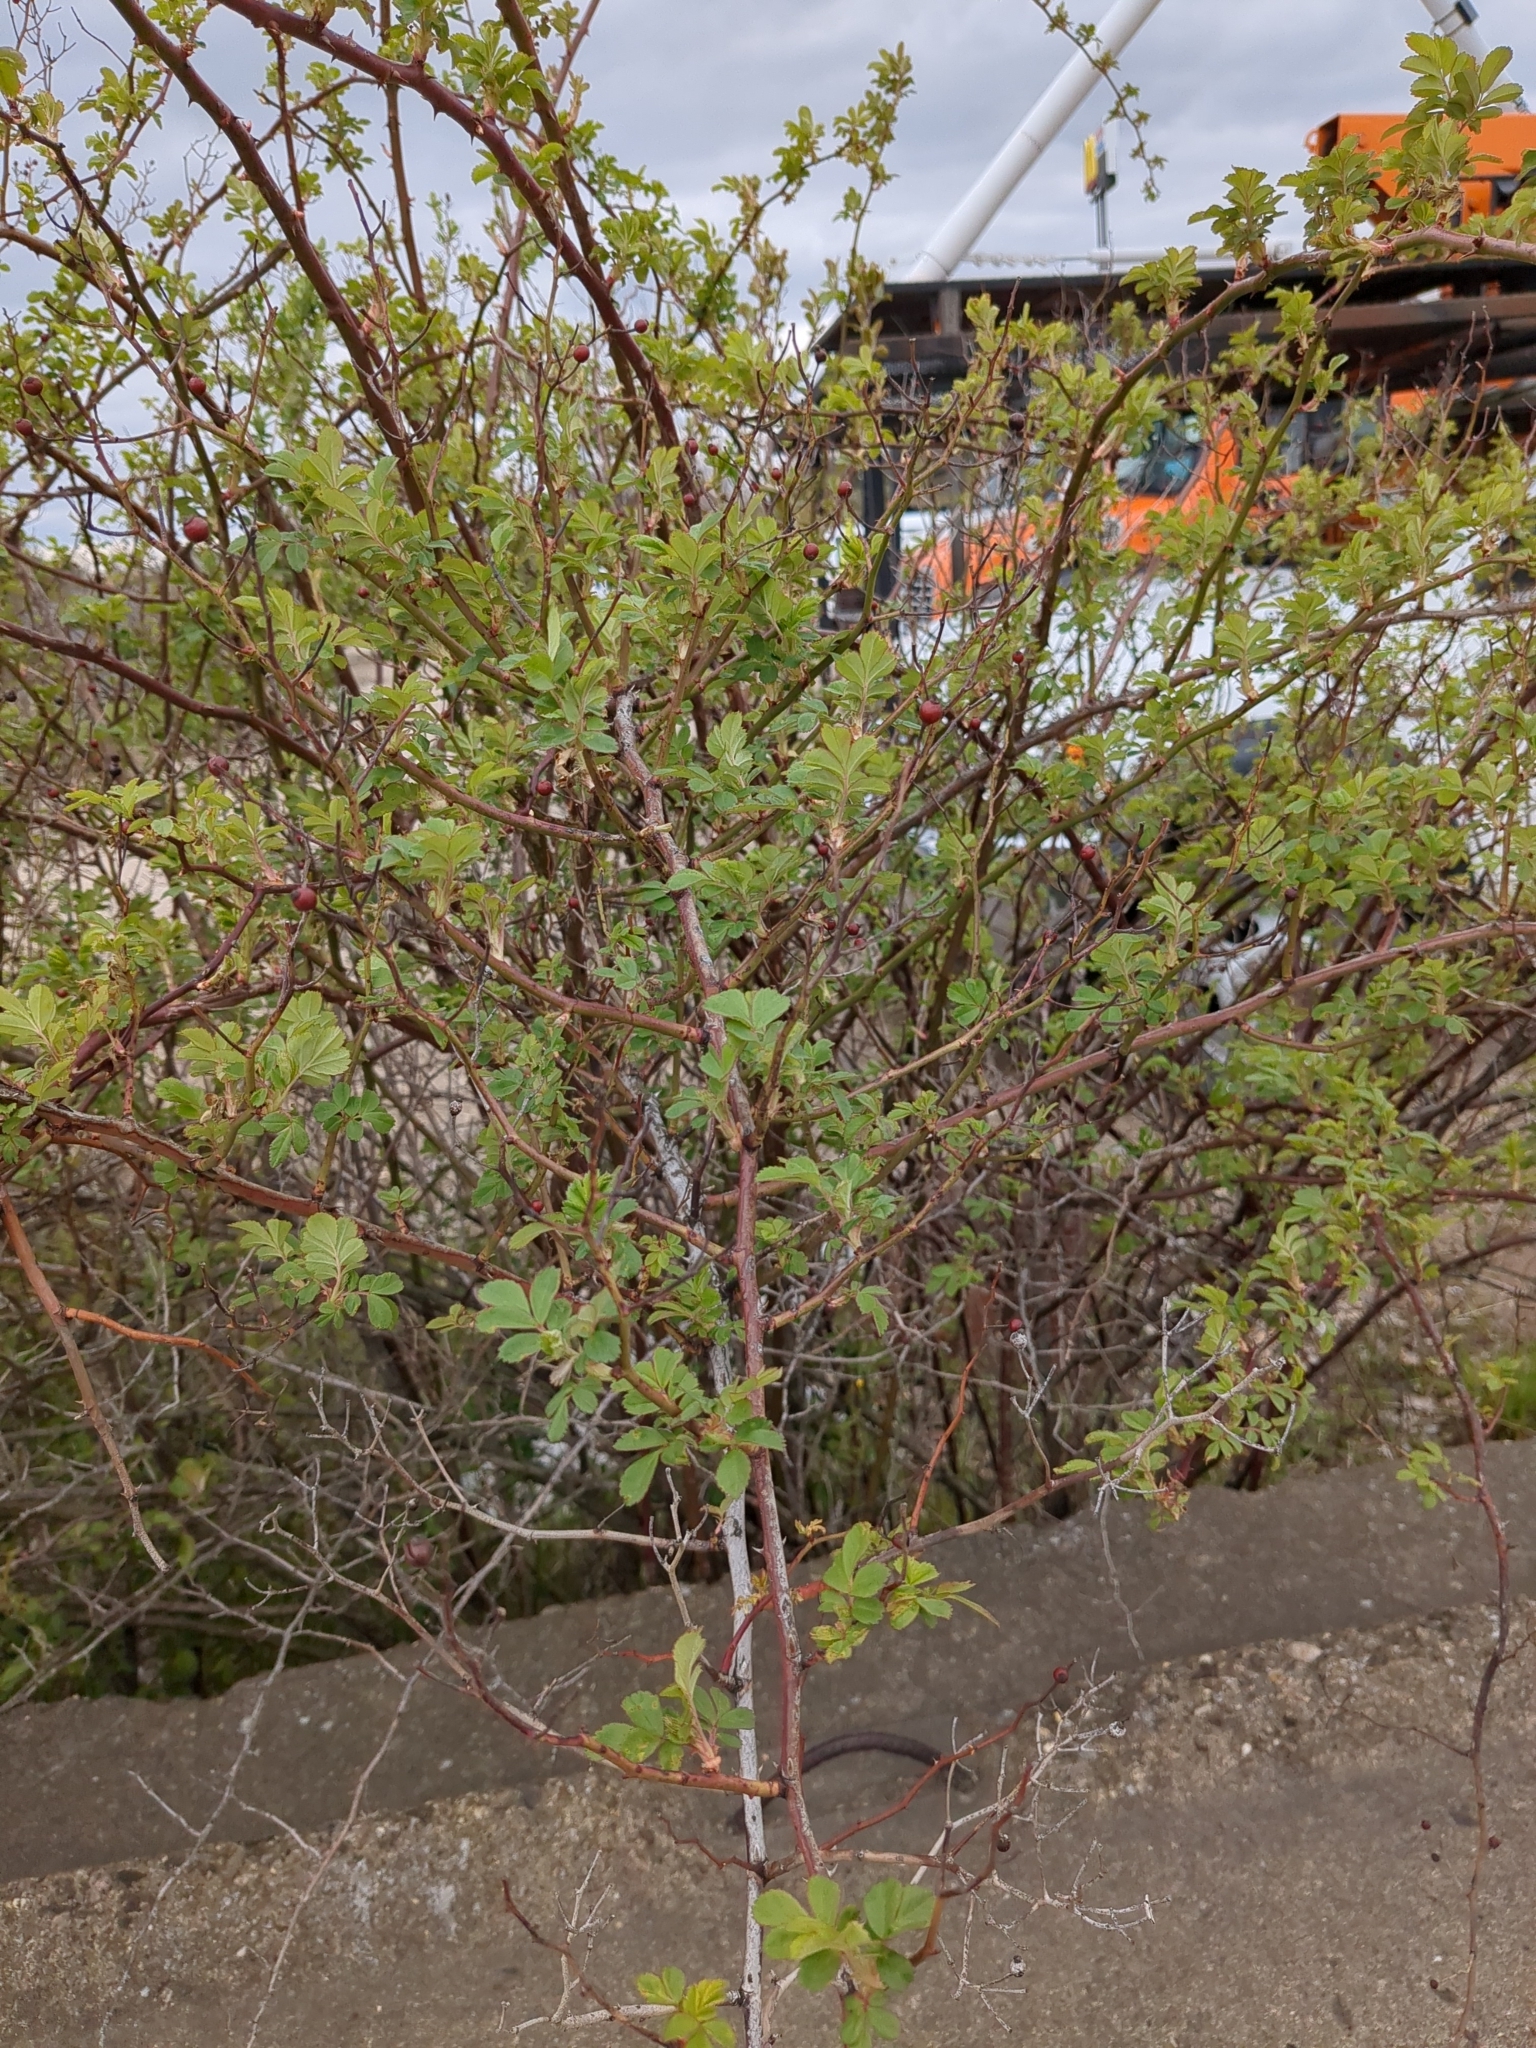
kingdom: Plantae
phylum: Tracheophyta
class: Magnoliopsida
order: Rosales
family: Rosaceae
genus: Rosa
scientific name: Rosa multiflora
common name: Multiflora rose
